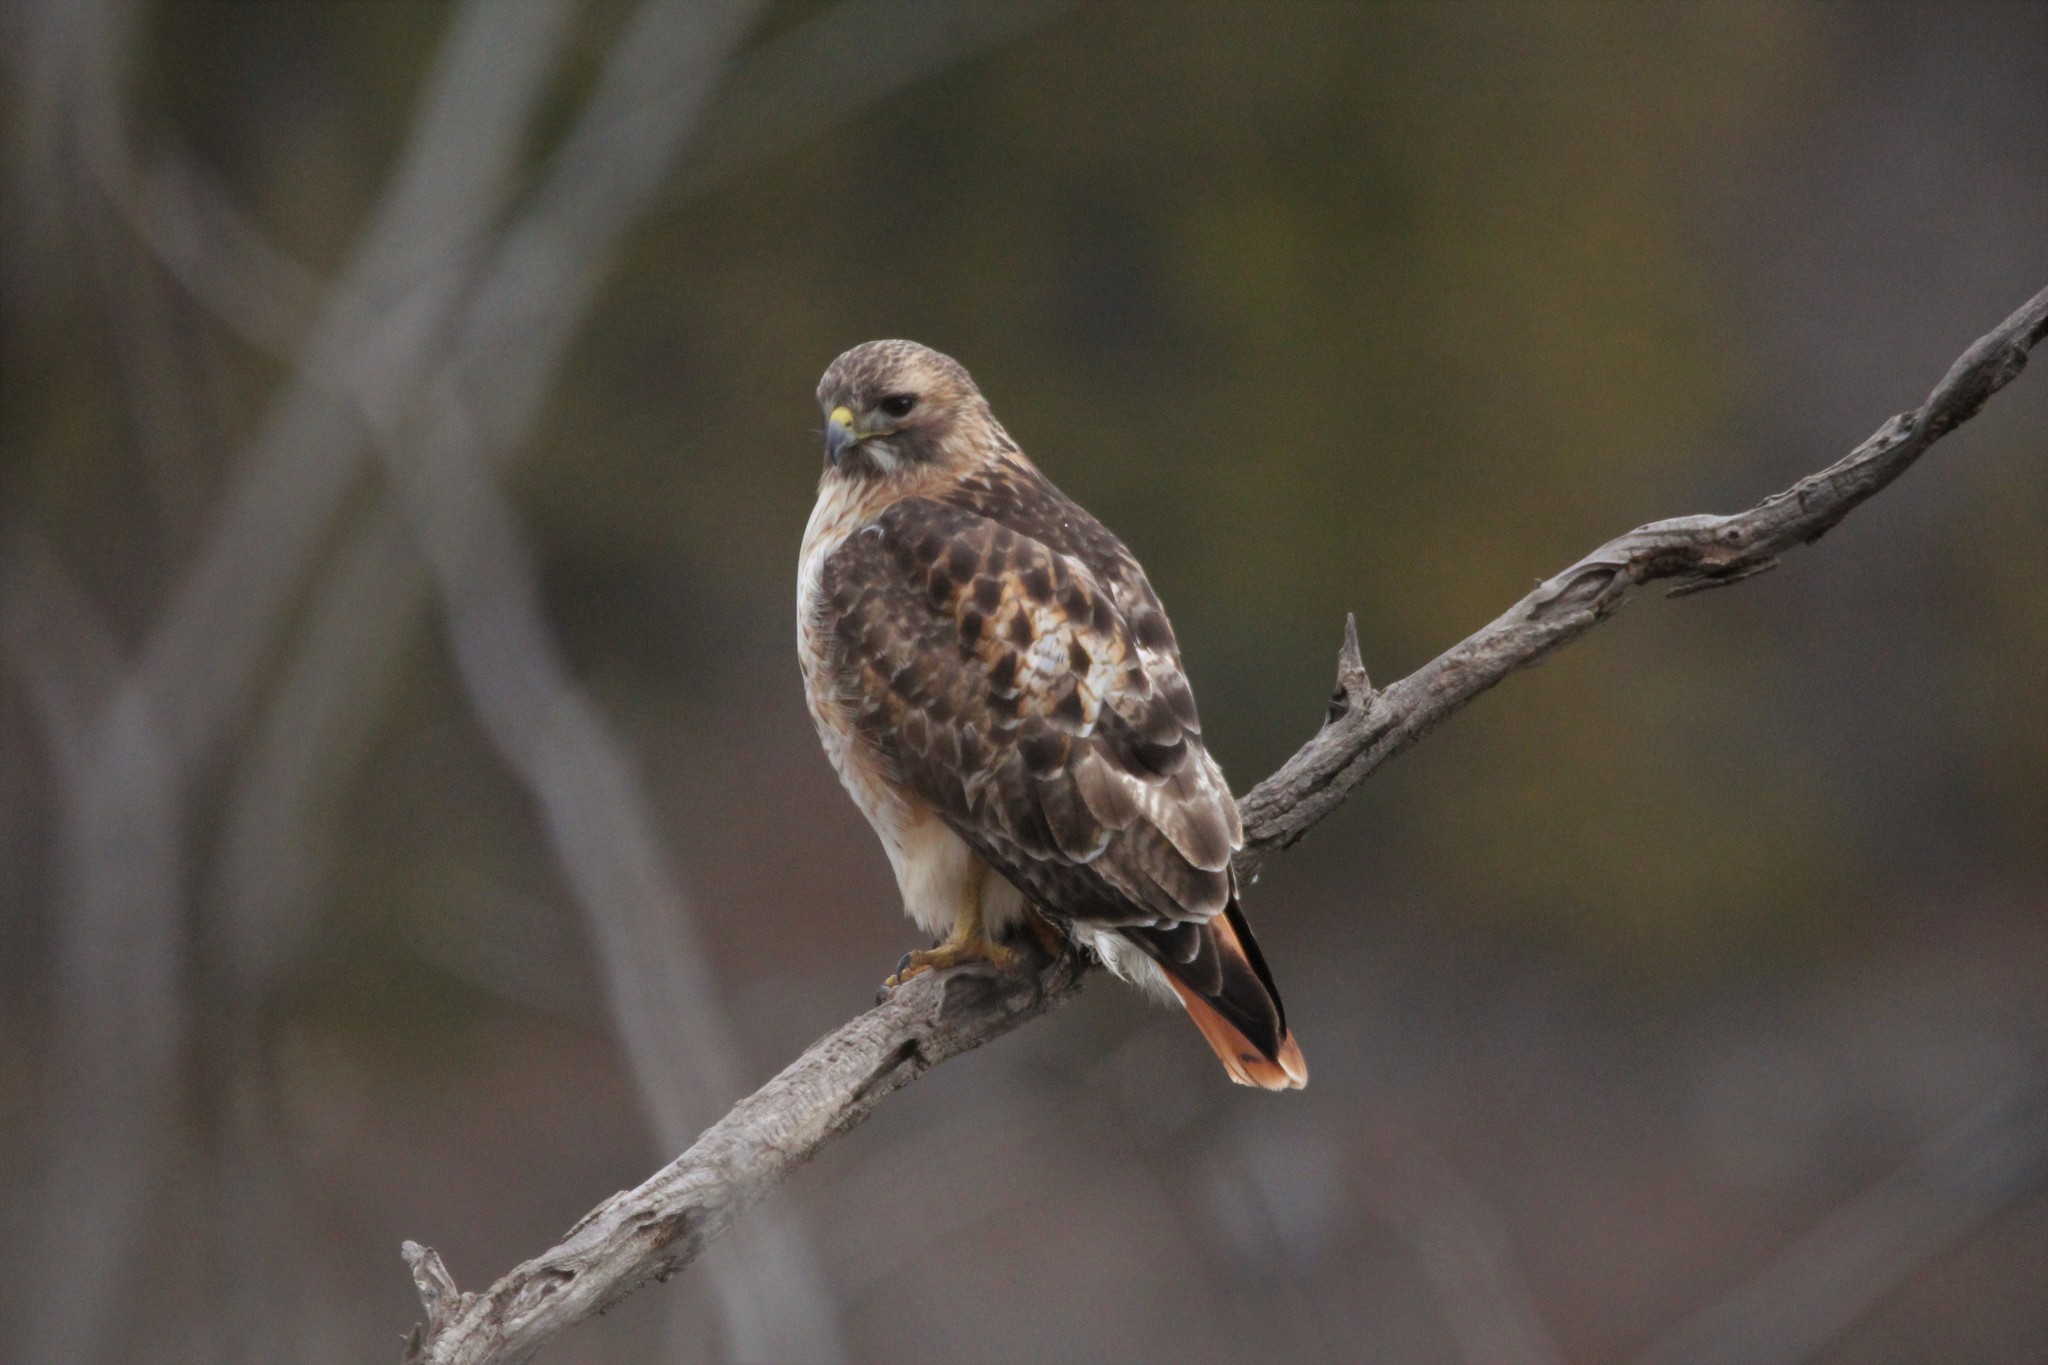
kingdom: Animalia
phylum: Chordata
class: Aves
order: Accipitriformes
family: Accipitridae
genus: Buteo
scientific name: Buteo jamaicensis
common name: Red-tailed hawk
